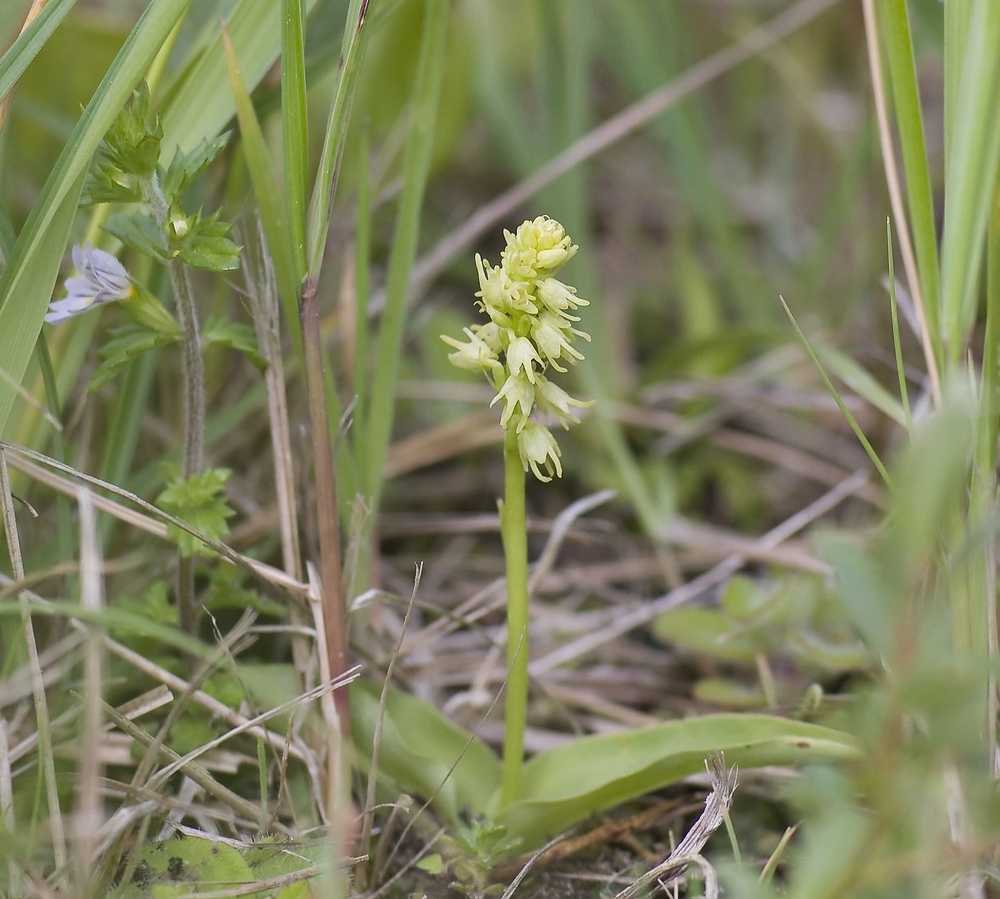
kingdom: Plantae
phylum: Tracheophyta
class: Liliopsida
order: Asparagales
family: Orchidaceae
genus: Herminium
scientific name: Herminium monorchis
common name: Musk orchid
